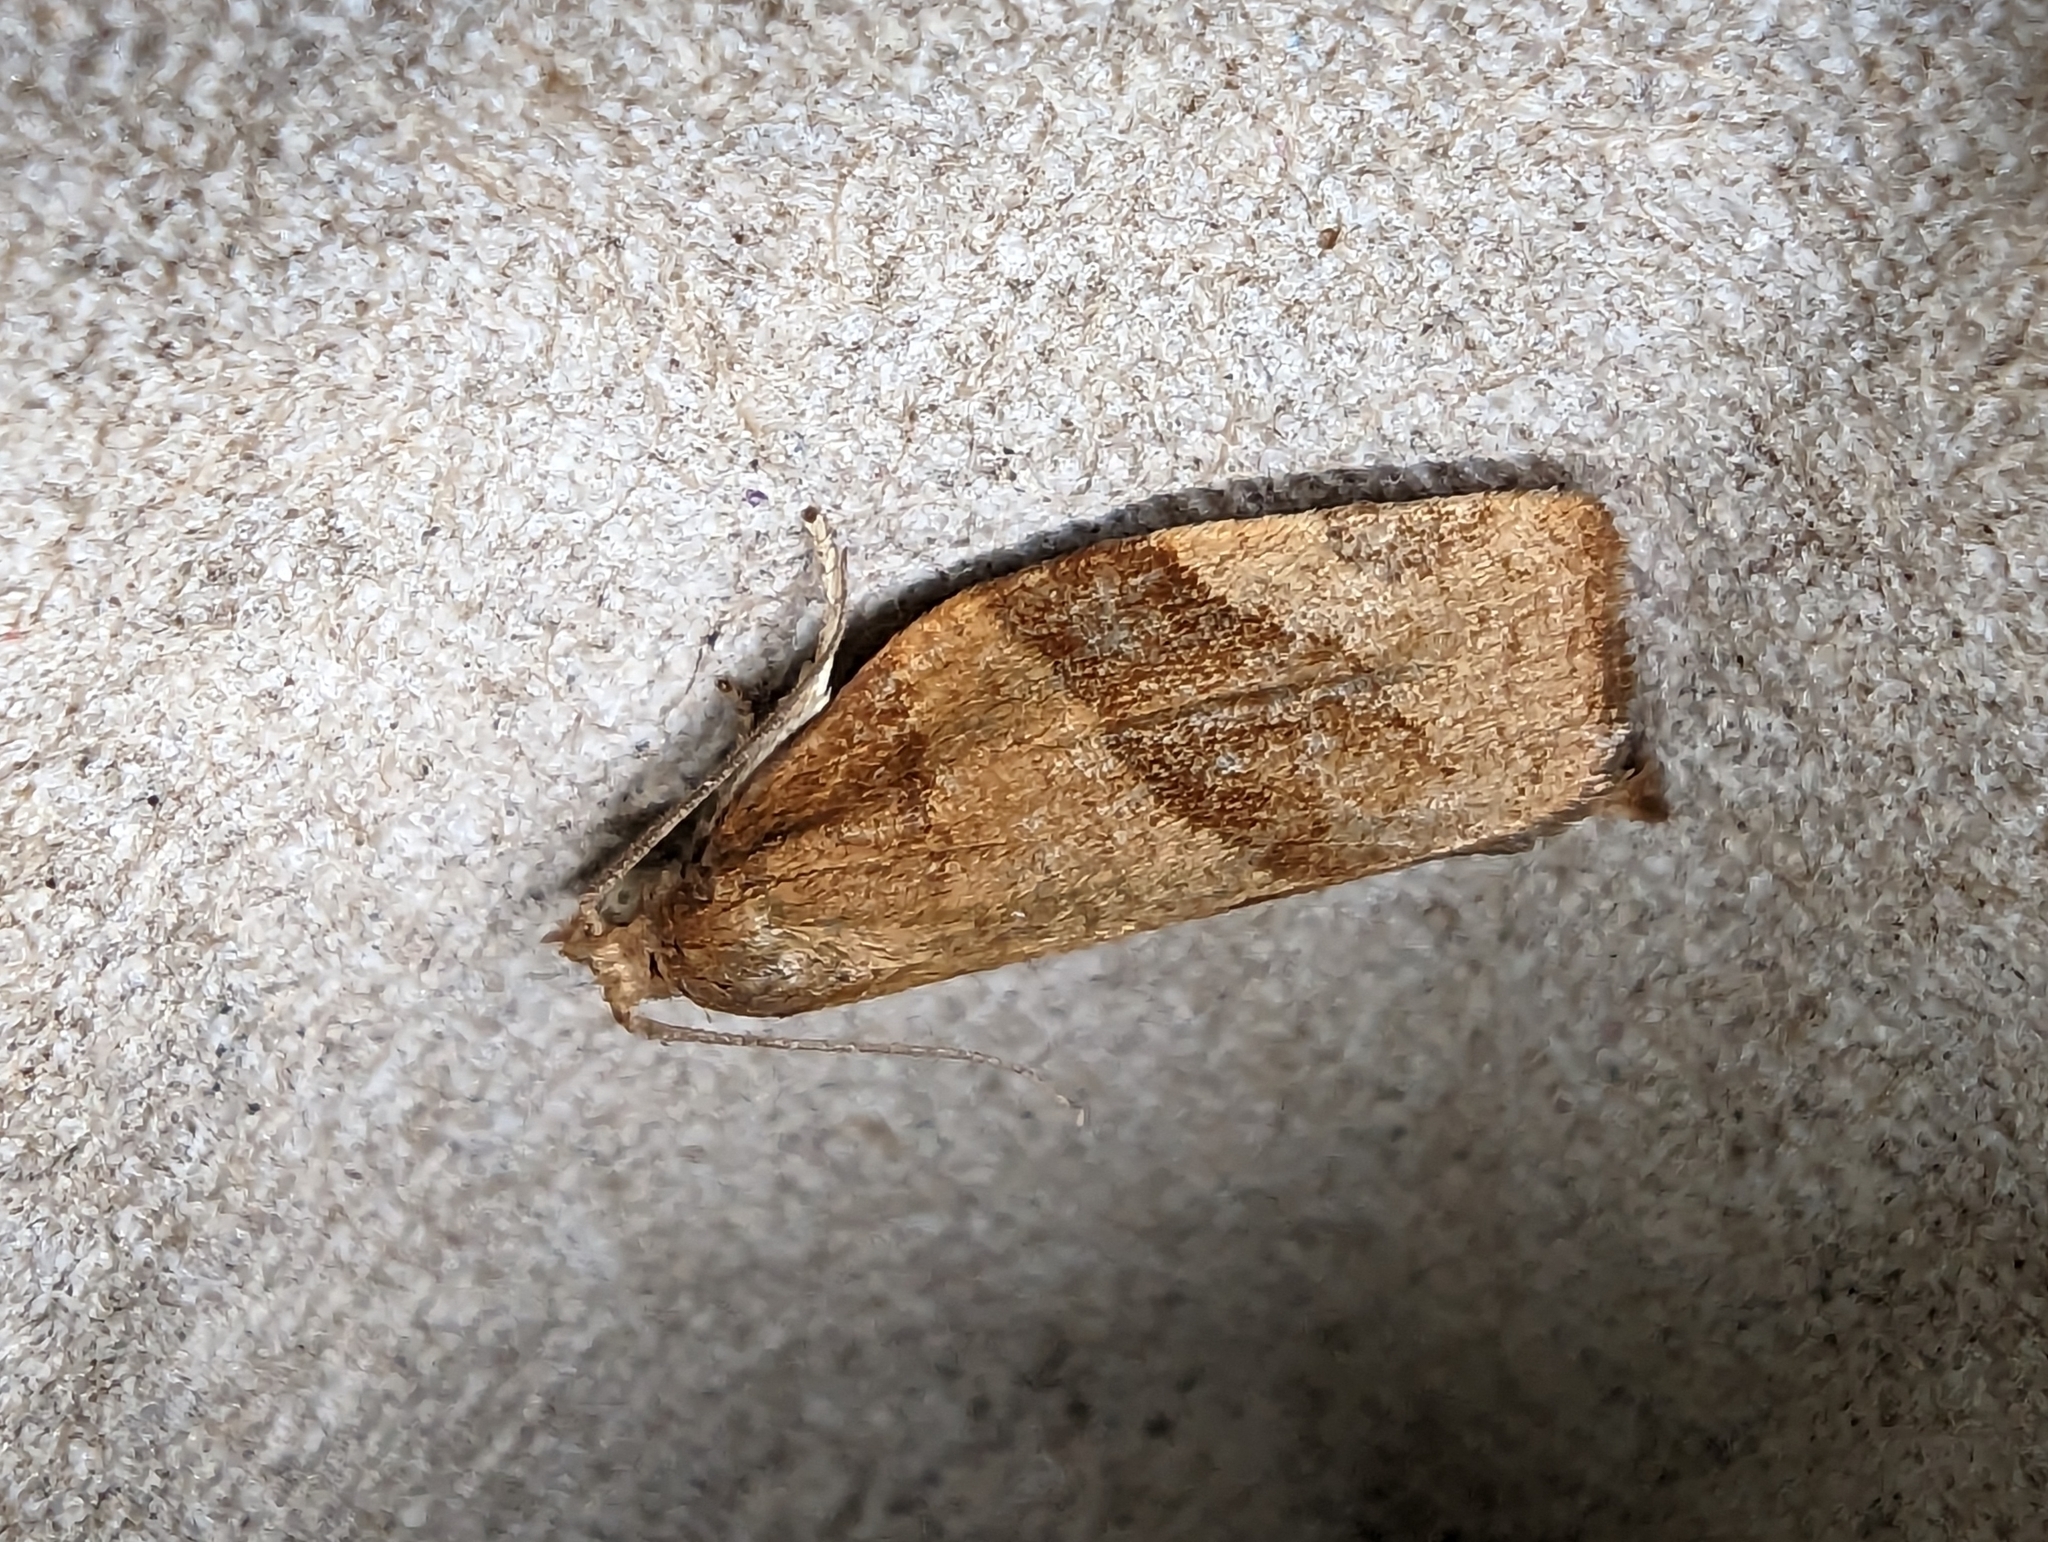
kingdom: Animalia
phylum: Arthropoda
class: Insecta
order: Lepidoptera
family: Tortricidae
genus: Pandemis
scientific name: Pandemis cerasana
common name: Barred fruit-tree tortrix
